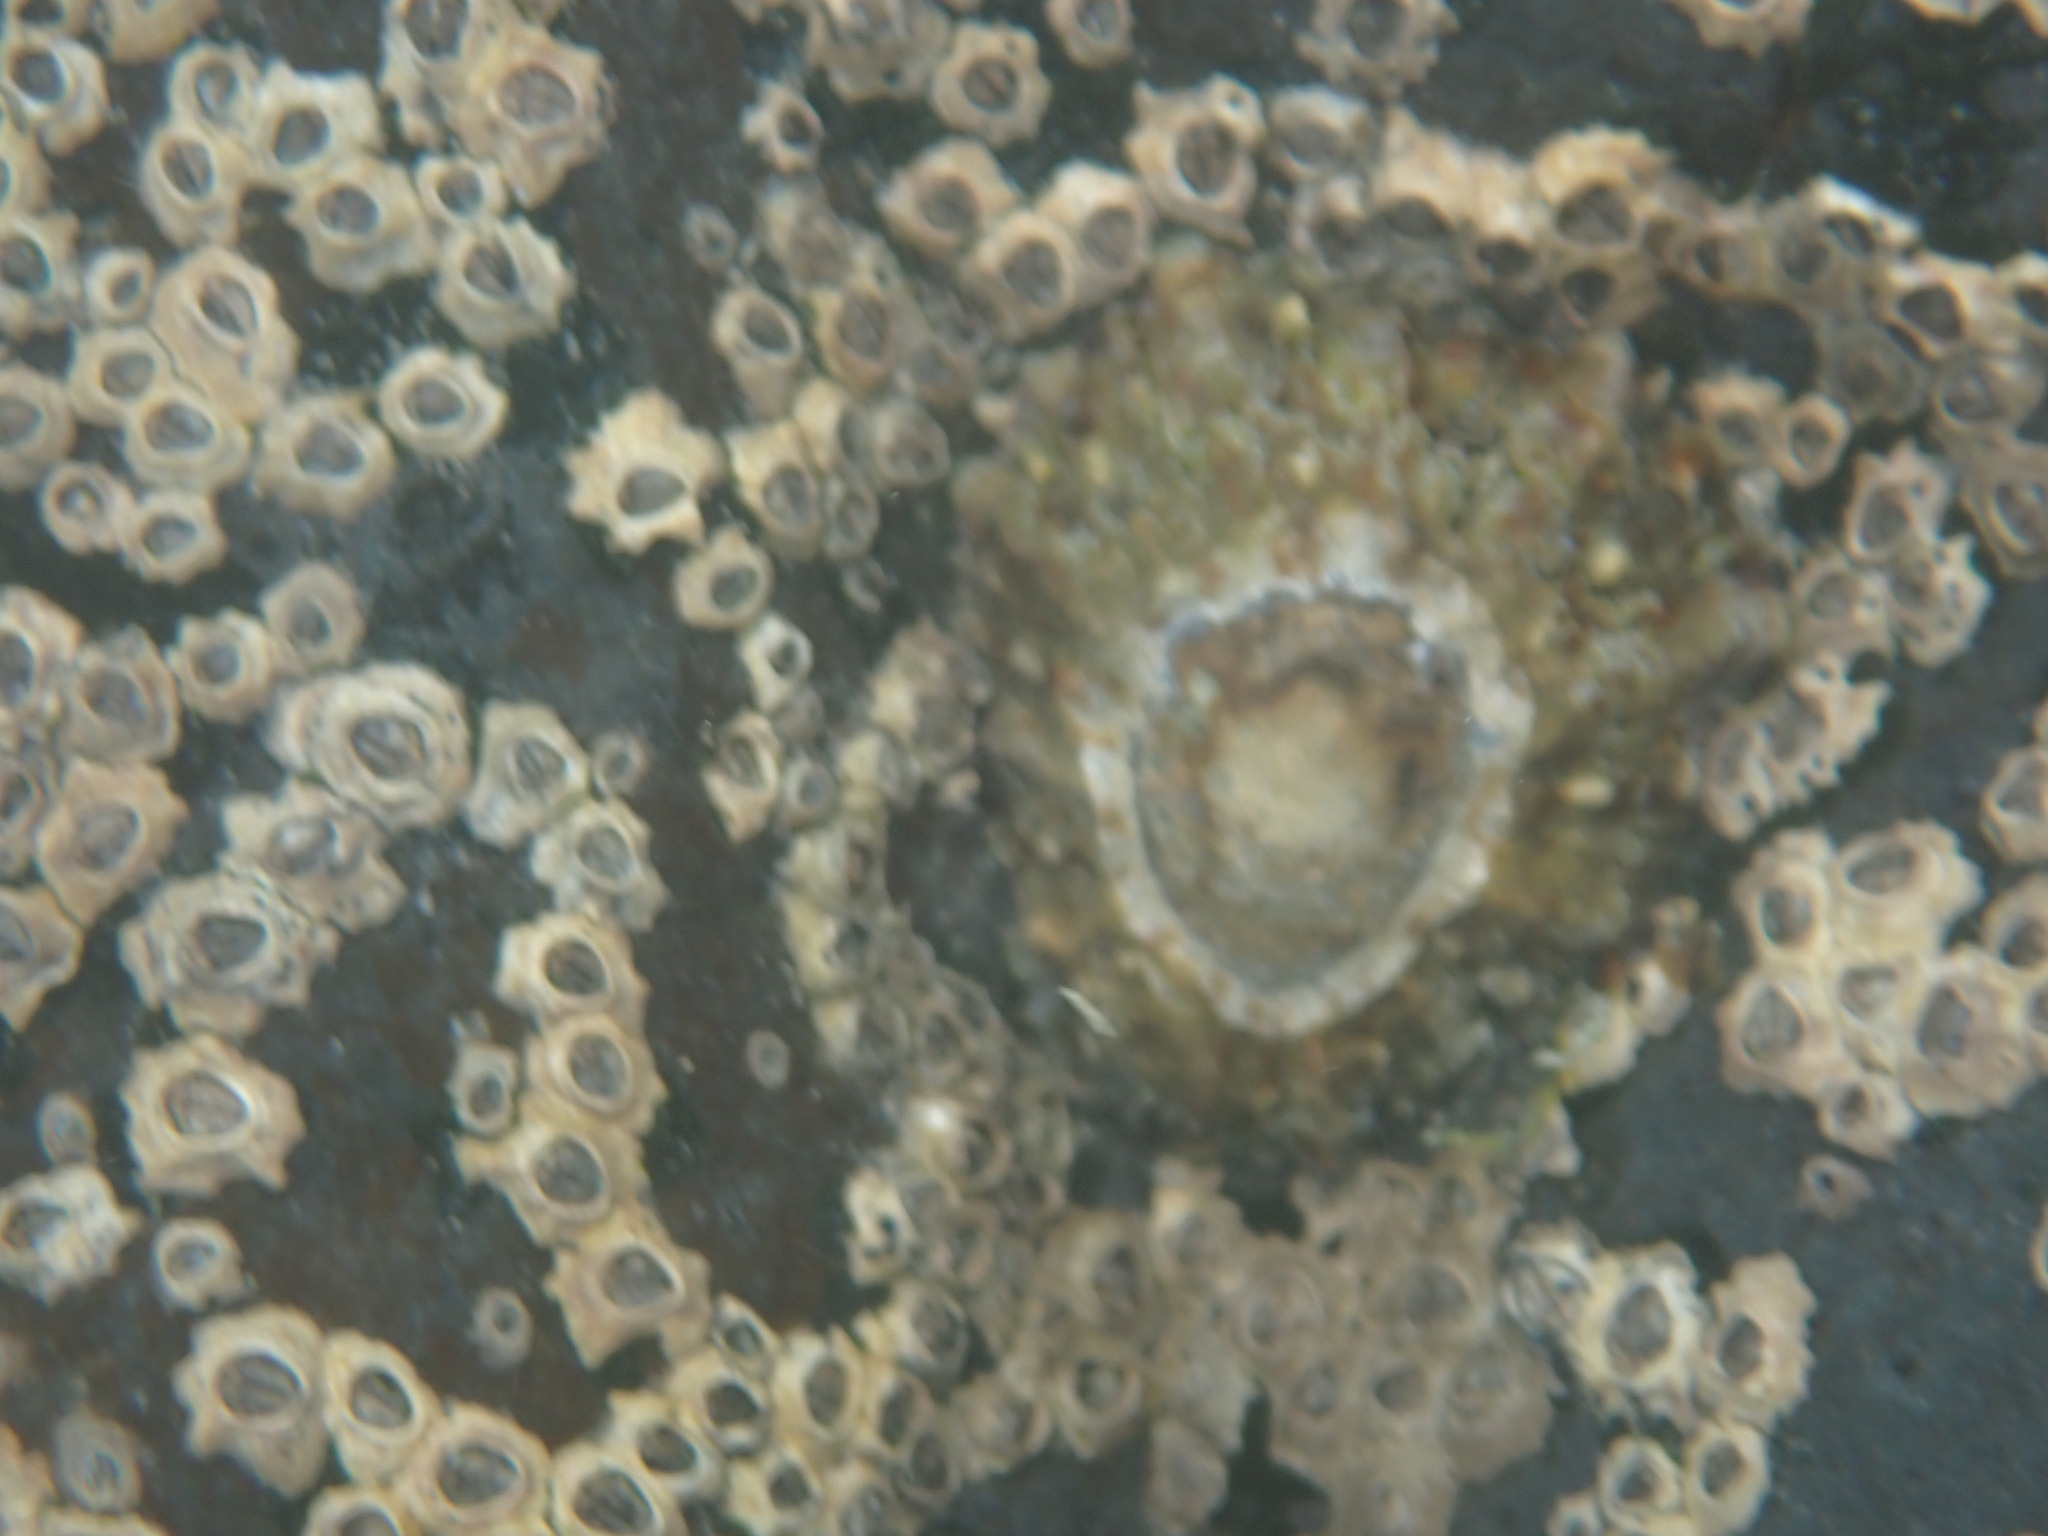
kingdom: Animalia
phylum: Mollusca
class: Gastropoda
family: Nacellidae
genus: Cellana
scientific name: Cellana ornata
